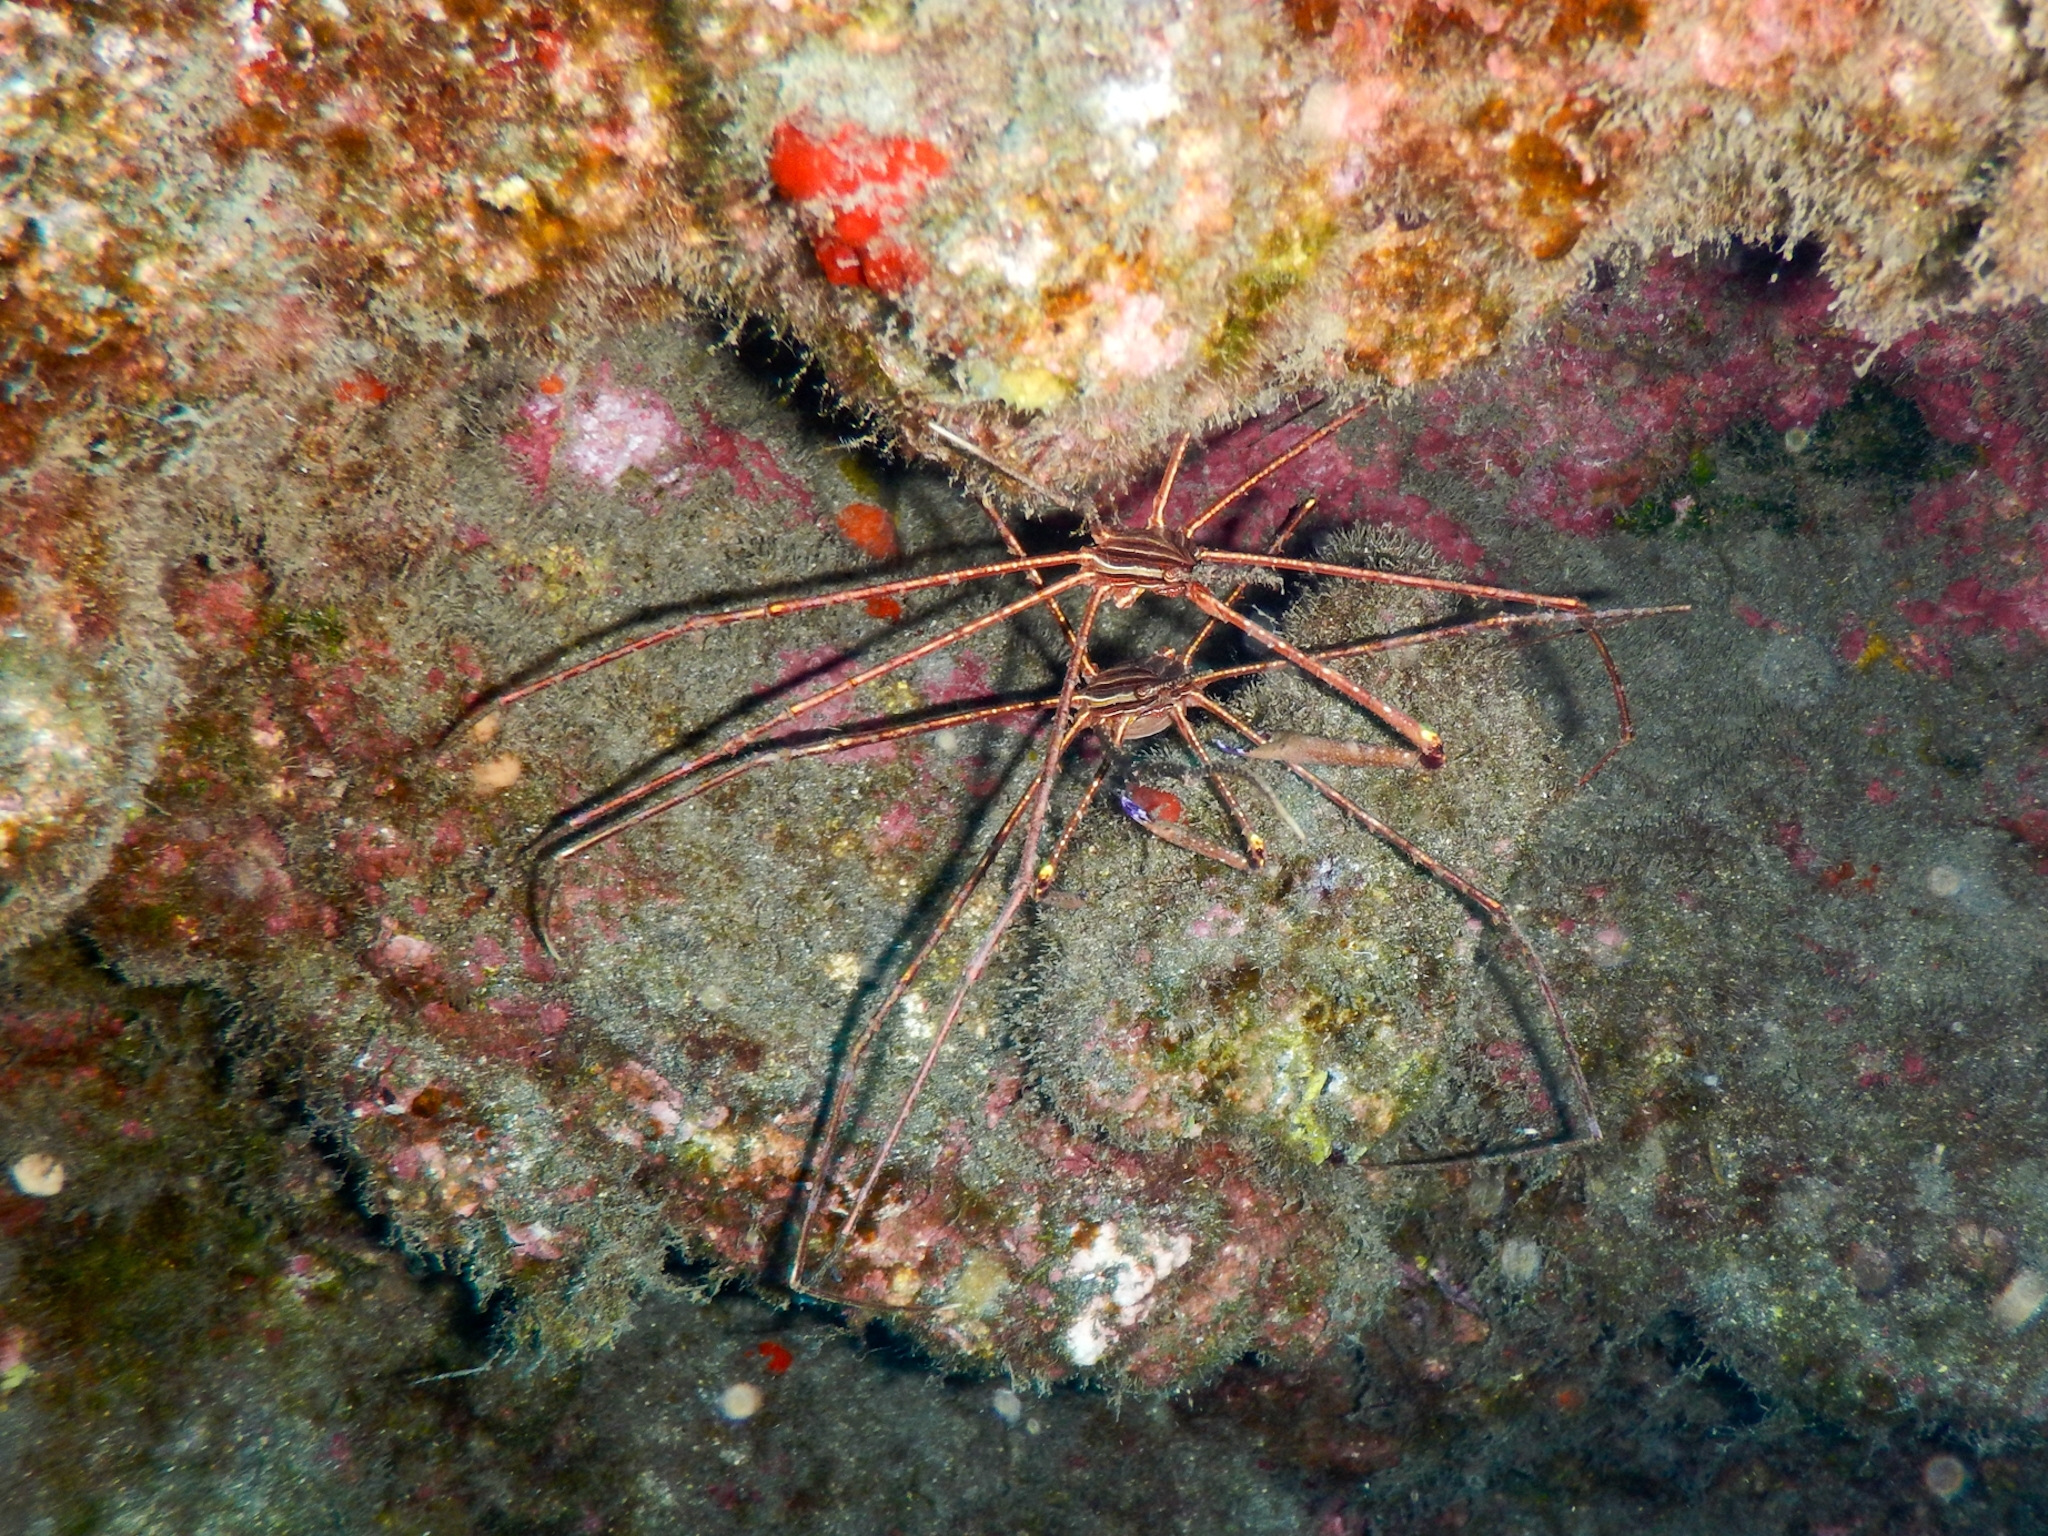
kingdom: Animalia
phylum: Arthropoda
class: Malacostraca
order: Decapoda
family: Inachoididae
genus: Stenorhynchus
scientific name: Stenorhynchus lanceolatus
